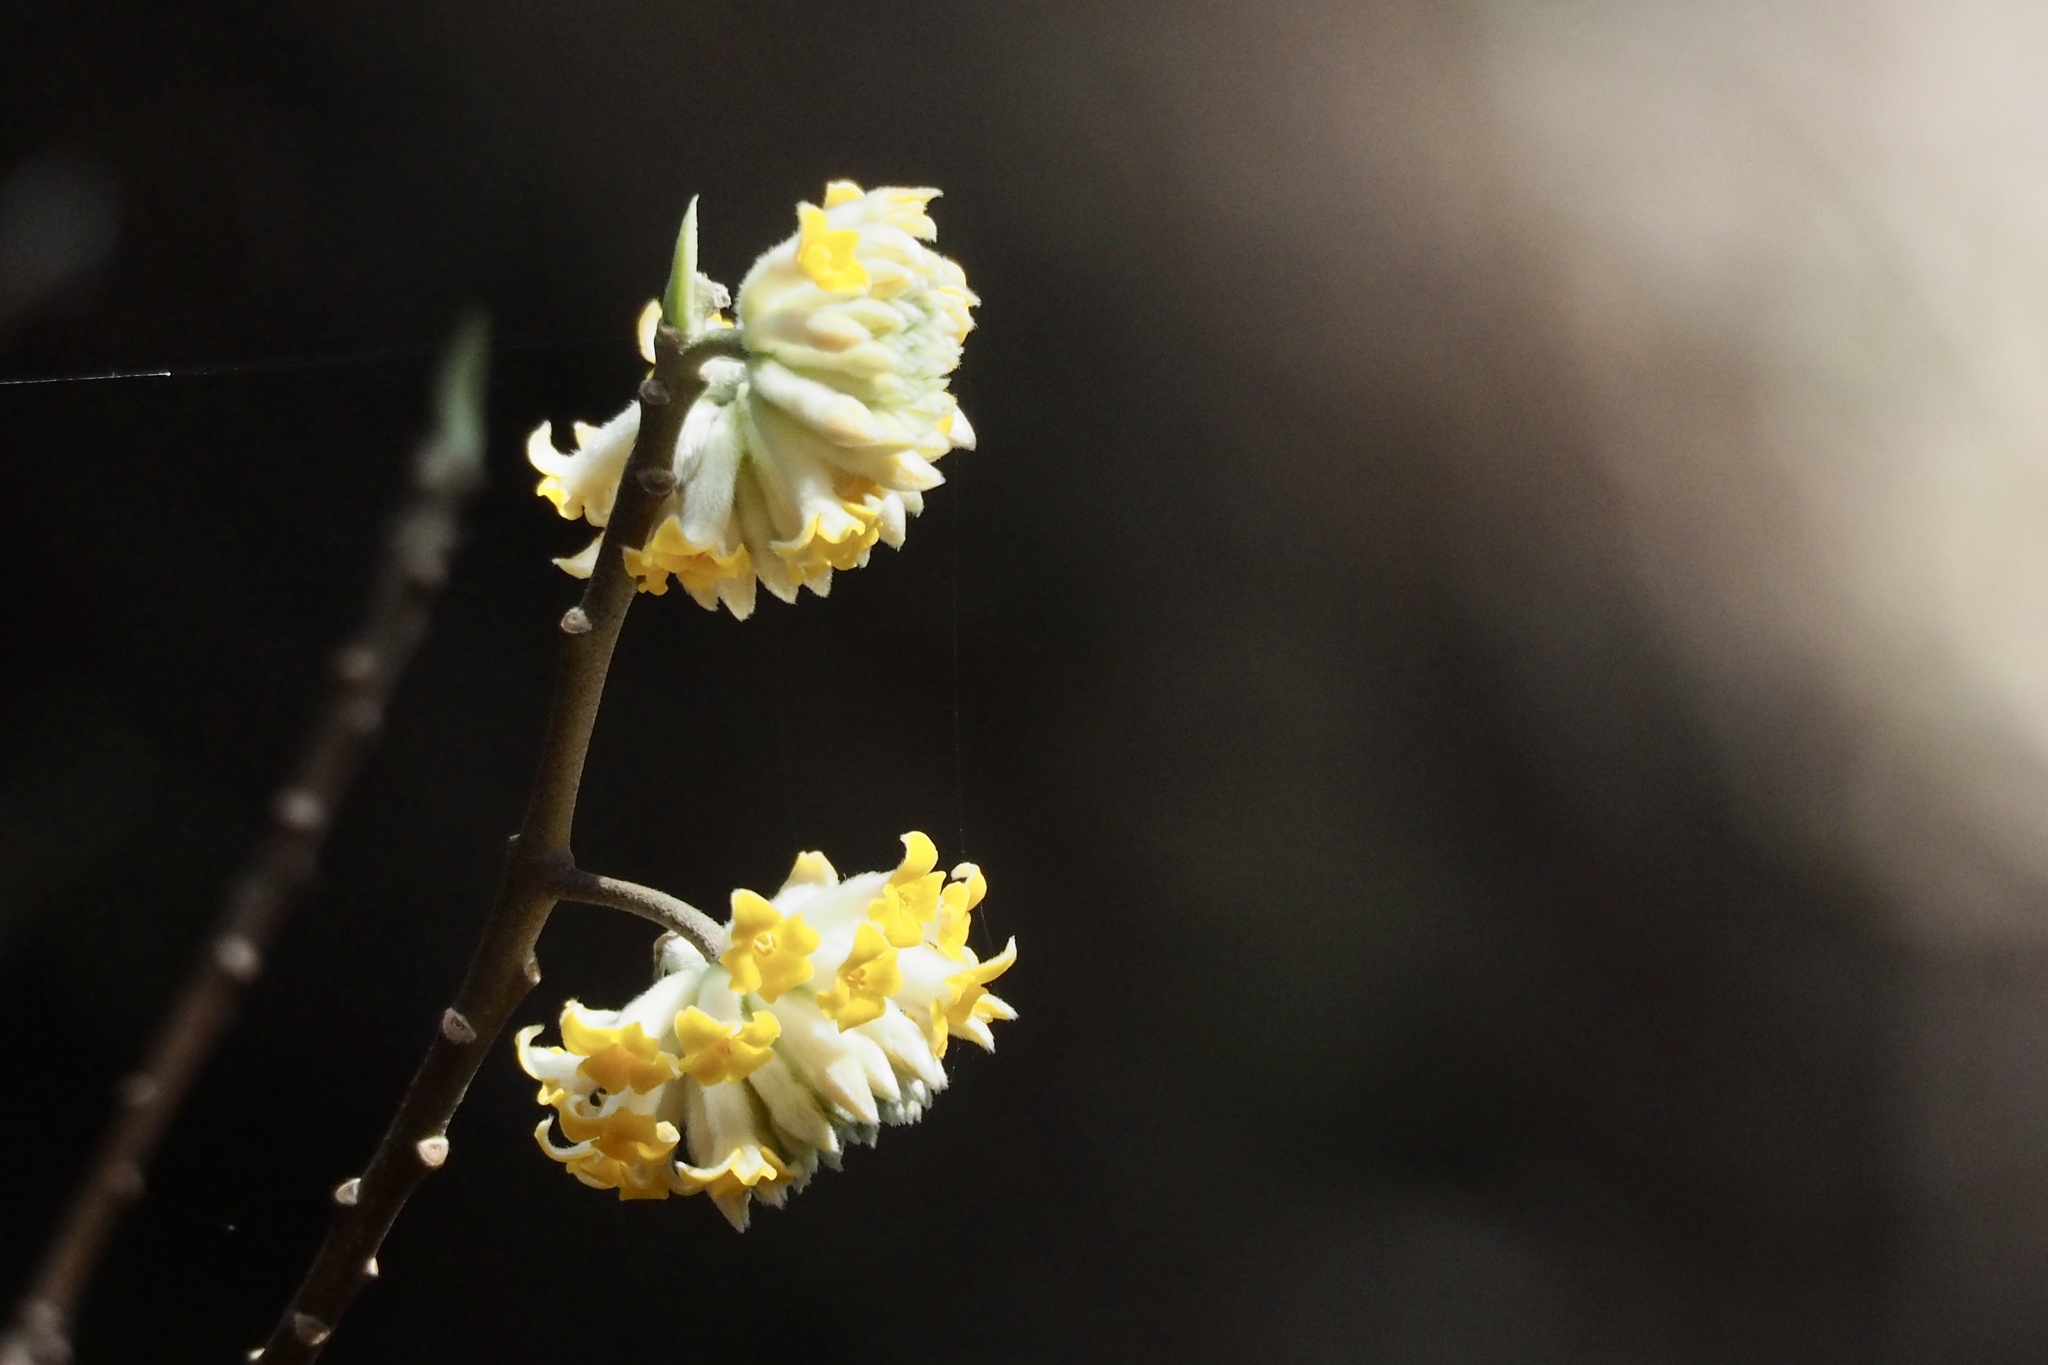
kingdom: Plantae
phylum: Tracheophyta
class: Magnoliopsida
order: Malvales
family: Thymelaeaceae
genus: Edgeworthia
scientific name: Edgeworthia chrysantha
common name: Oriental paperbush
